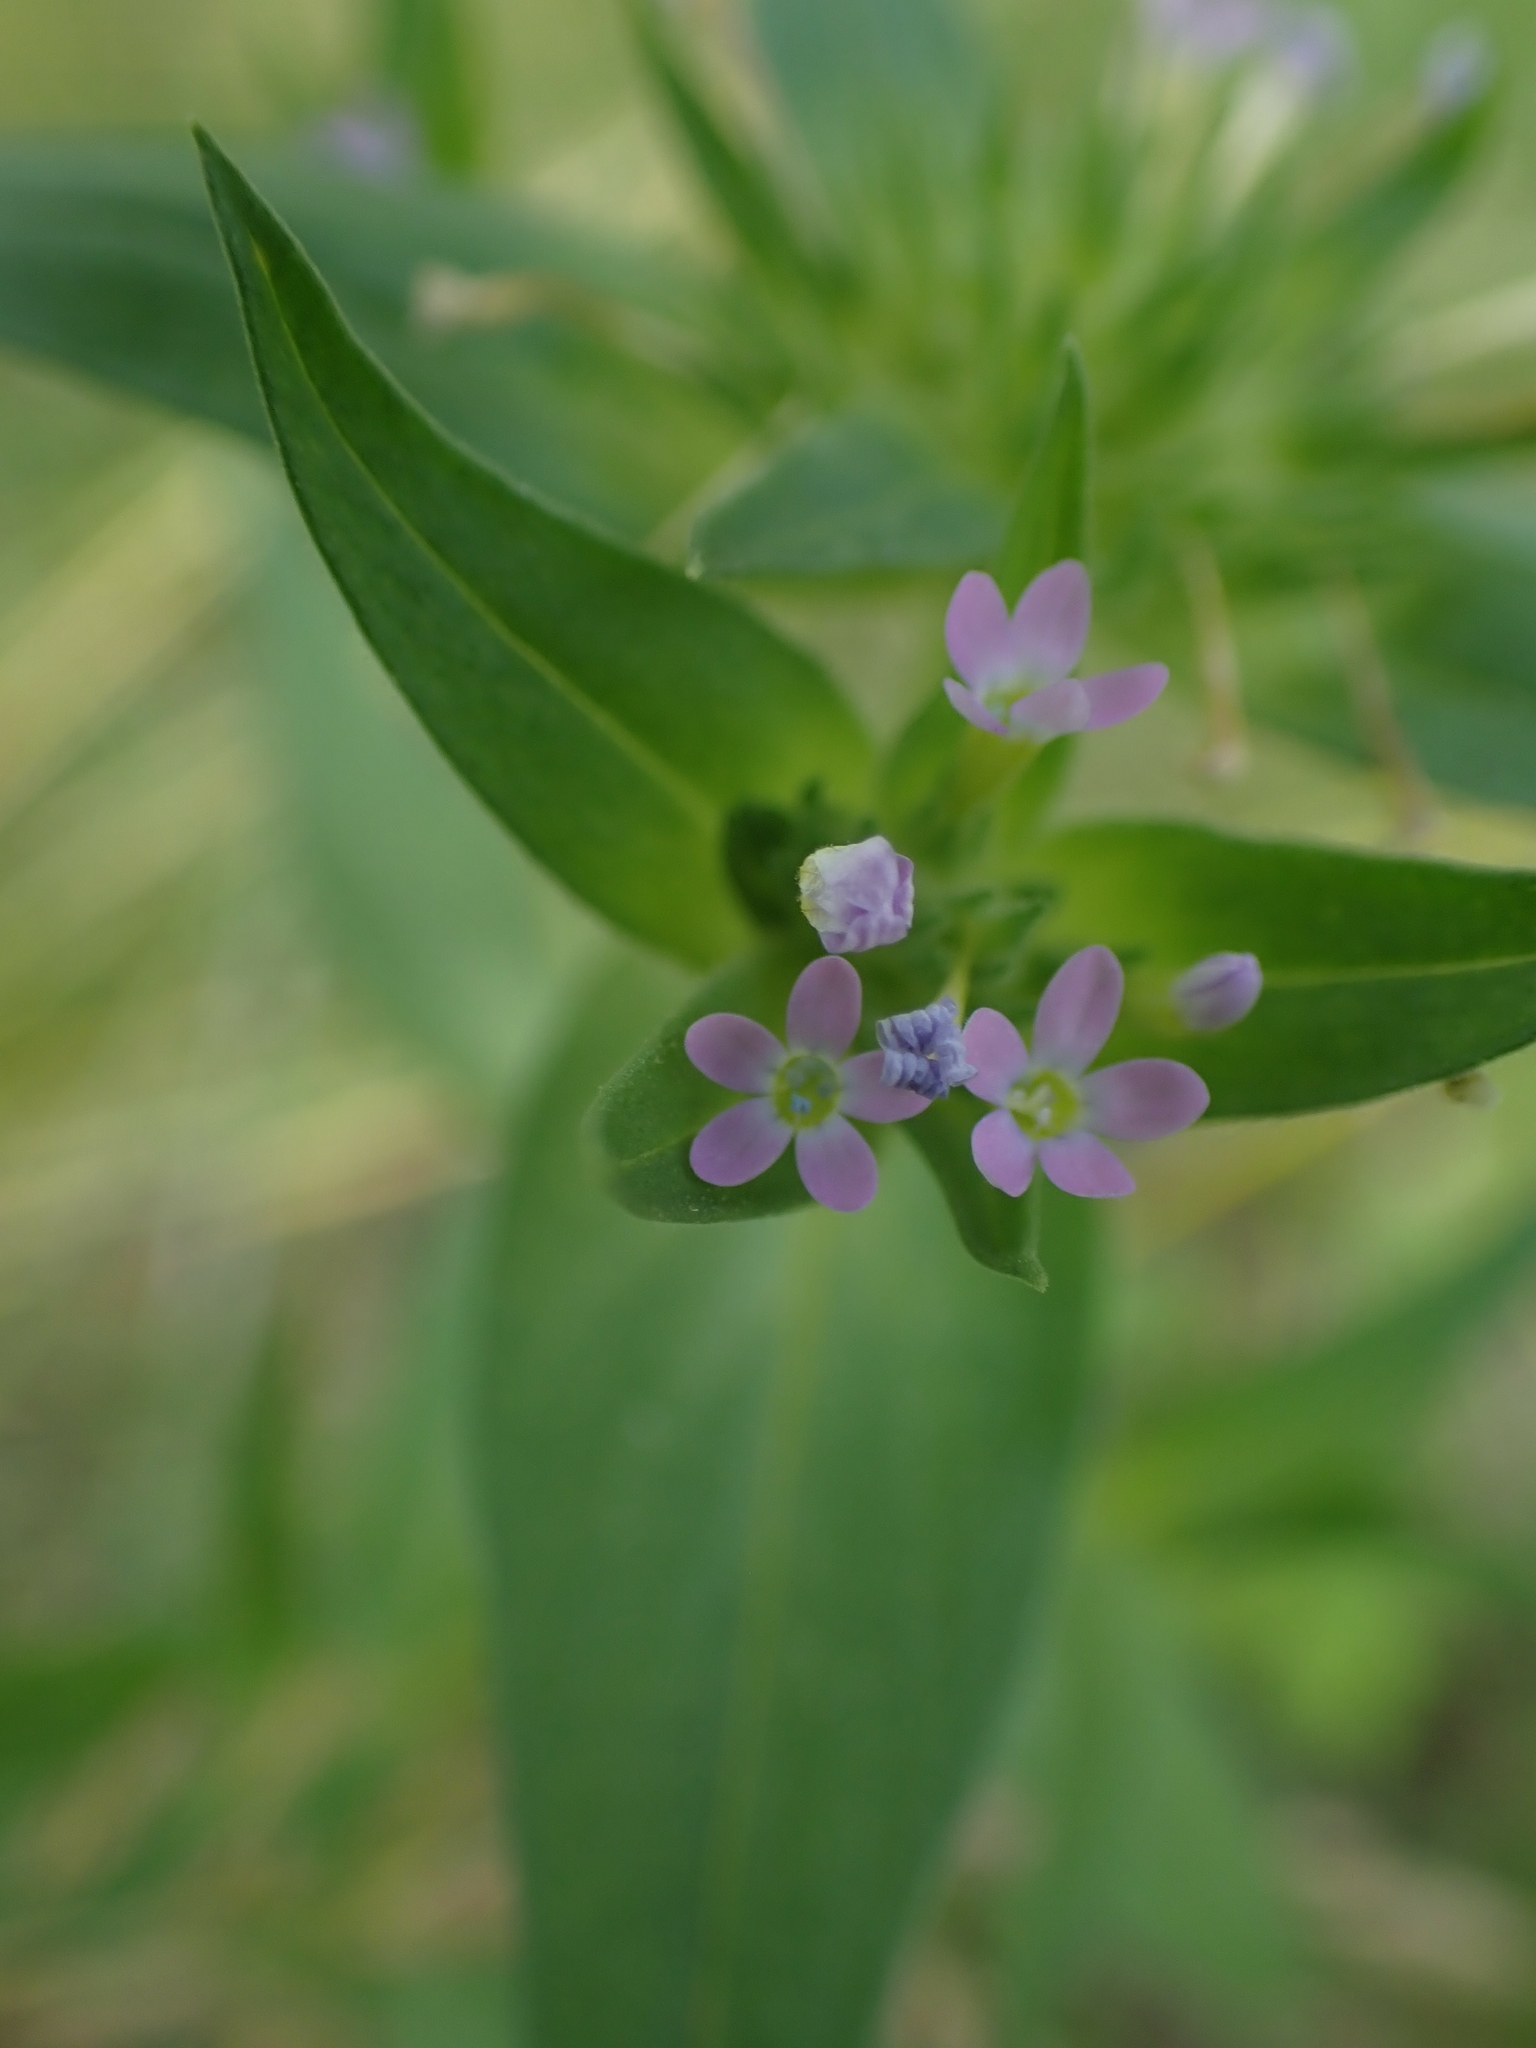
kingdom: Plantae
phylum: Tracheophyta
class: Magnoliopsida
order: Ericales
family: Polemoniaceae
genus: Collomia
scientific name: Collomia linearis
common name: Tiny trumpet
